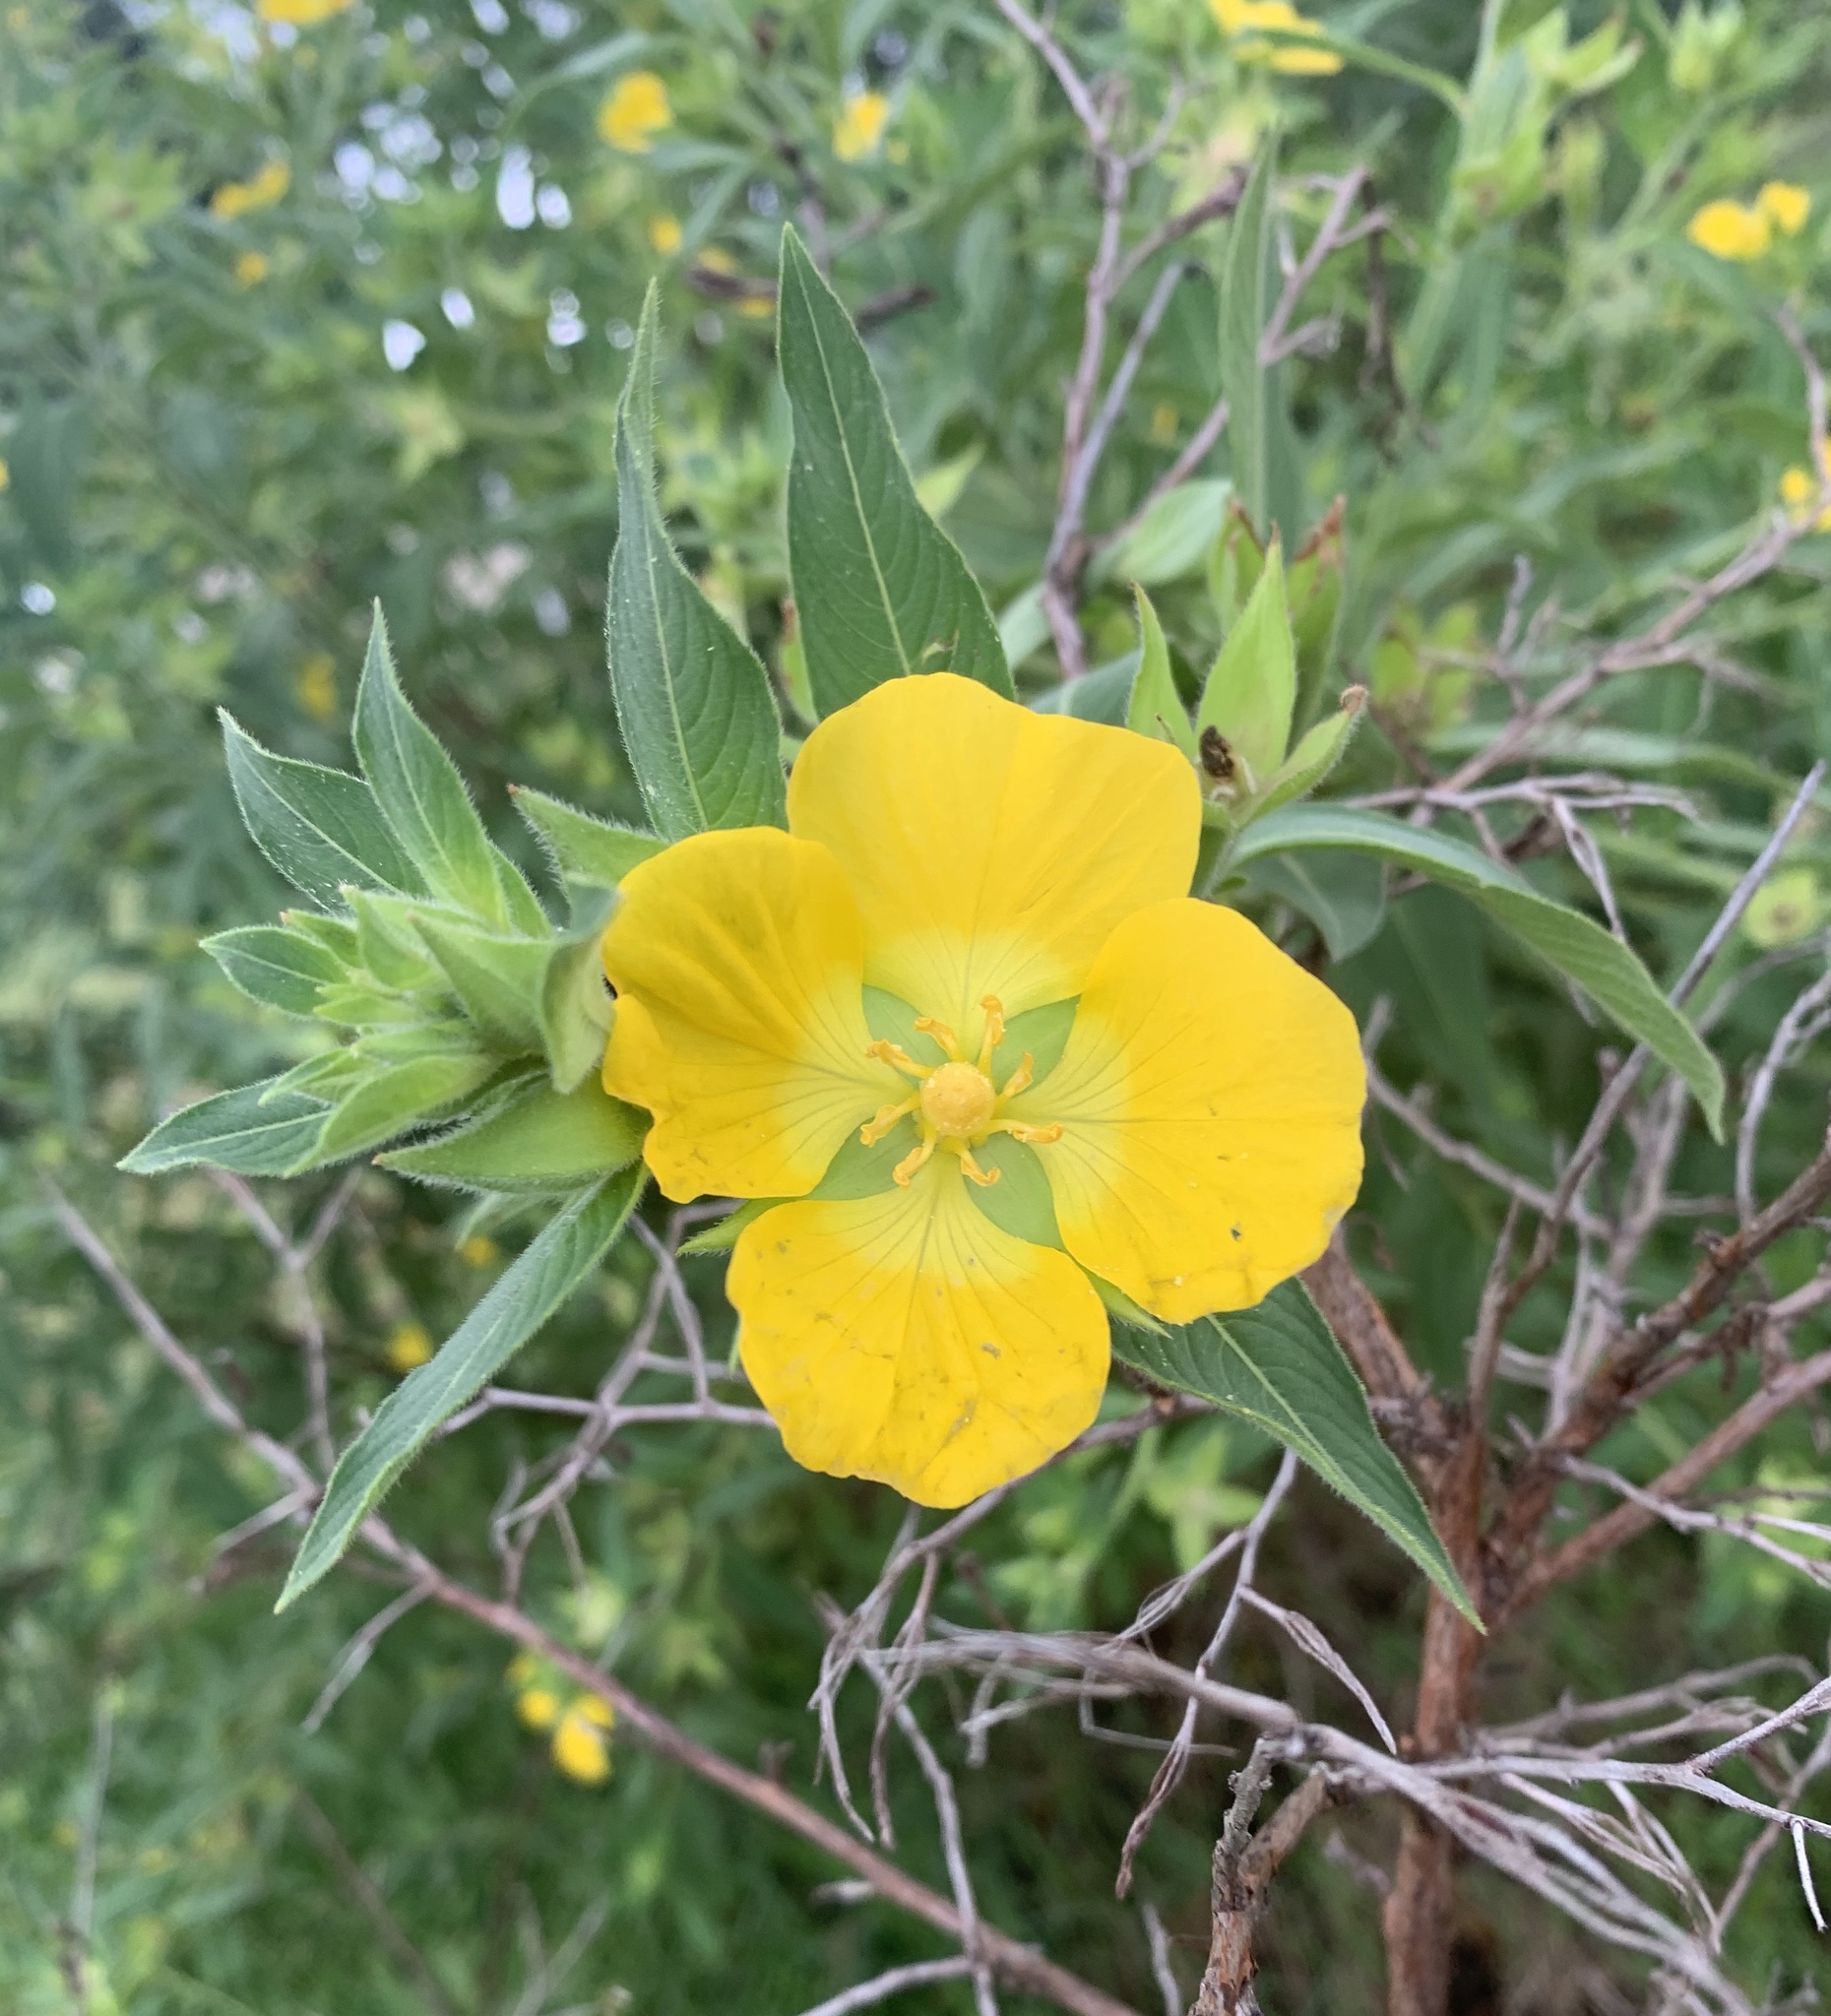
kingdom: Plantae
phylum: Tracheophyta
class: Magnoliopsida
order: Myrtales
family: Onagraceae
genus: Ludwigia
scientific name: Ludwigia peruviana
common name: Peruvian primrose-willow
